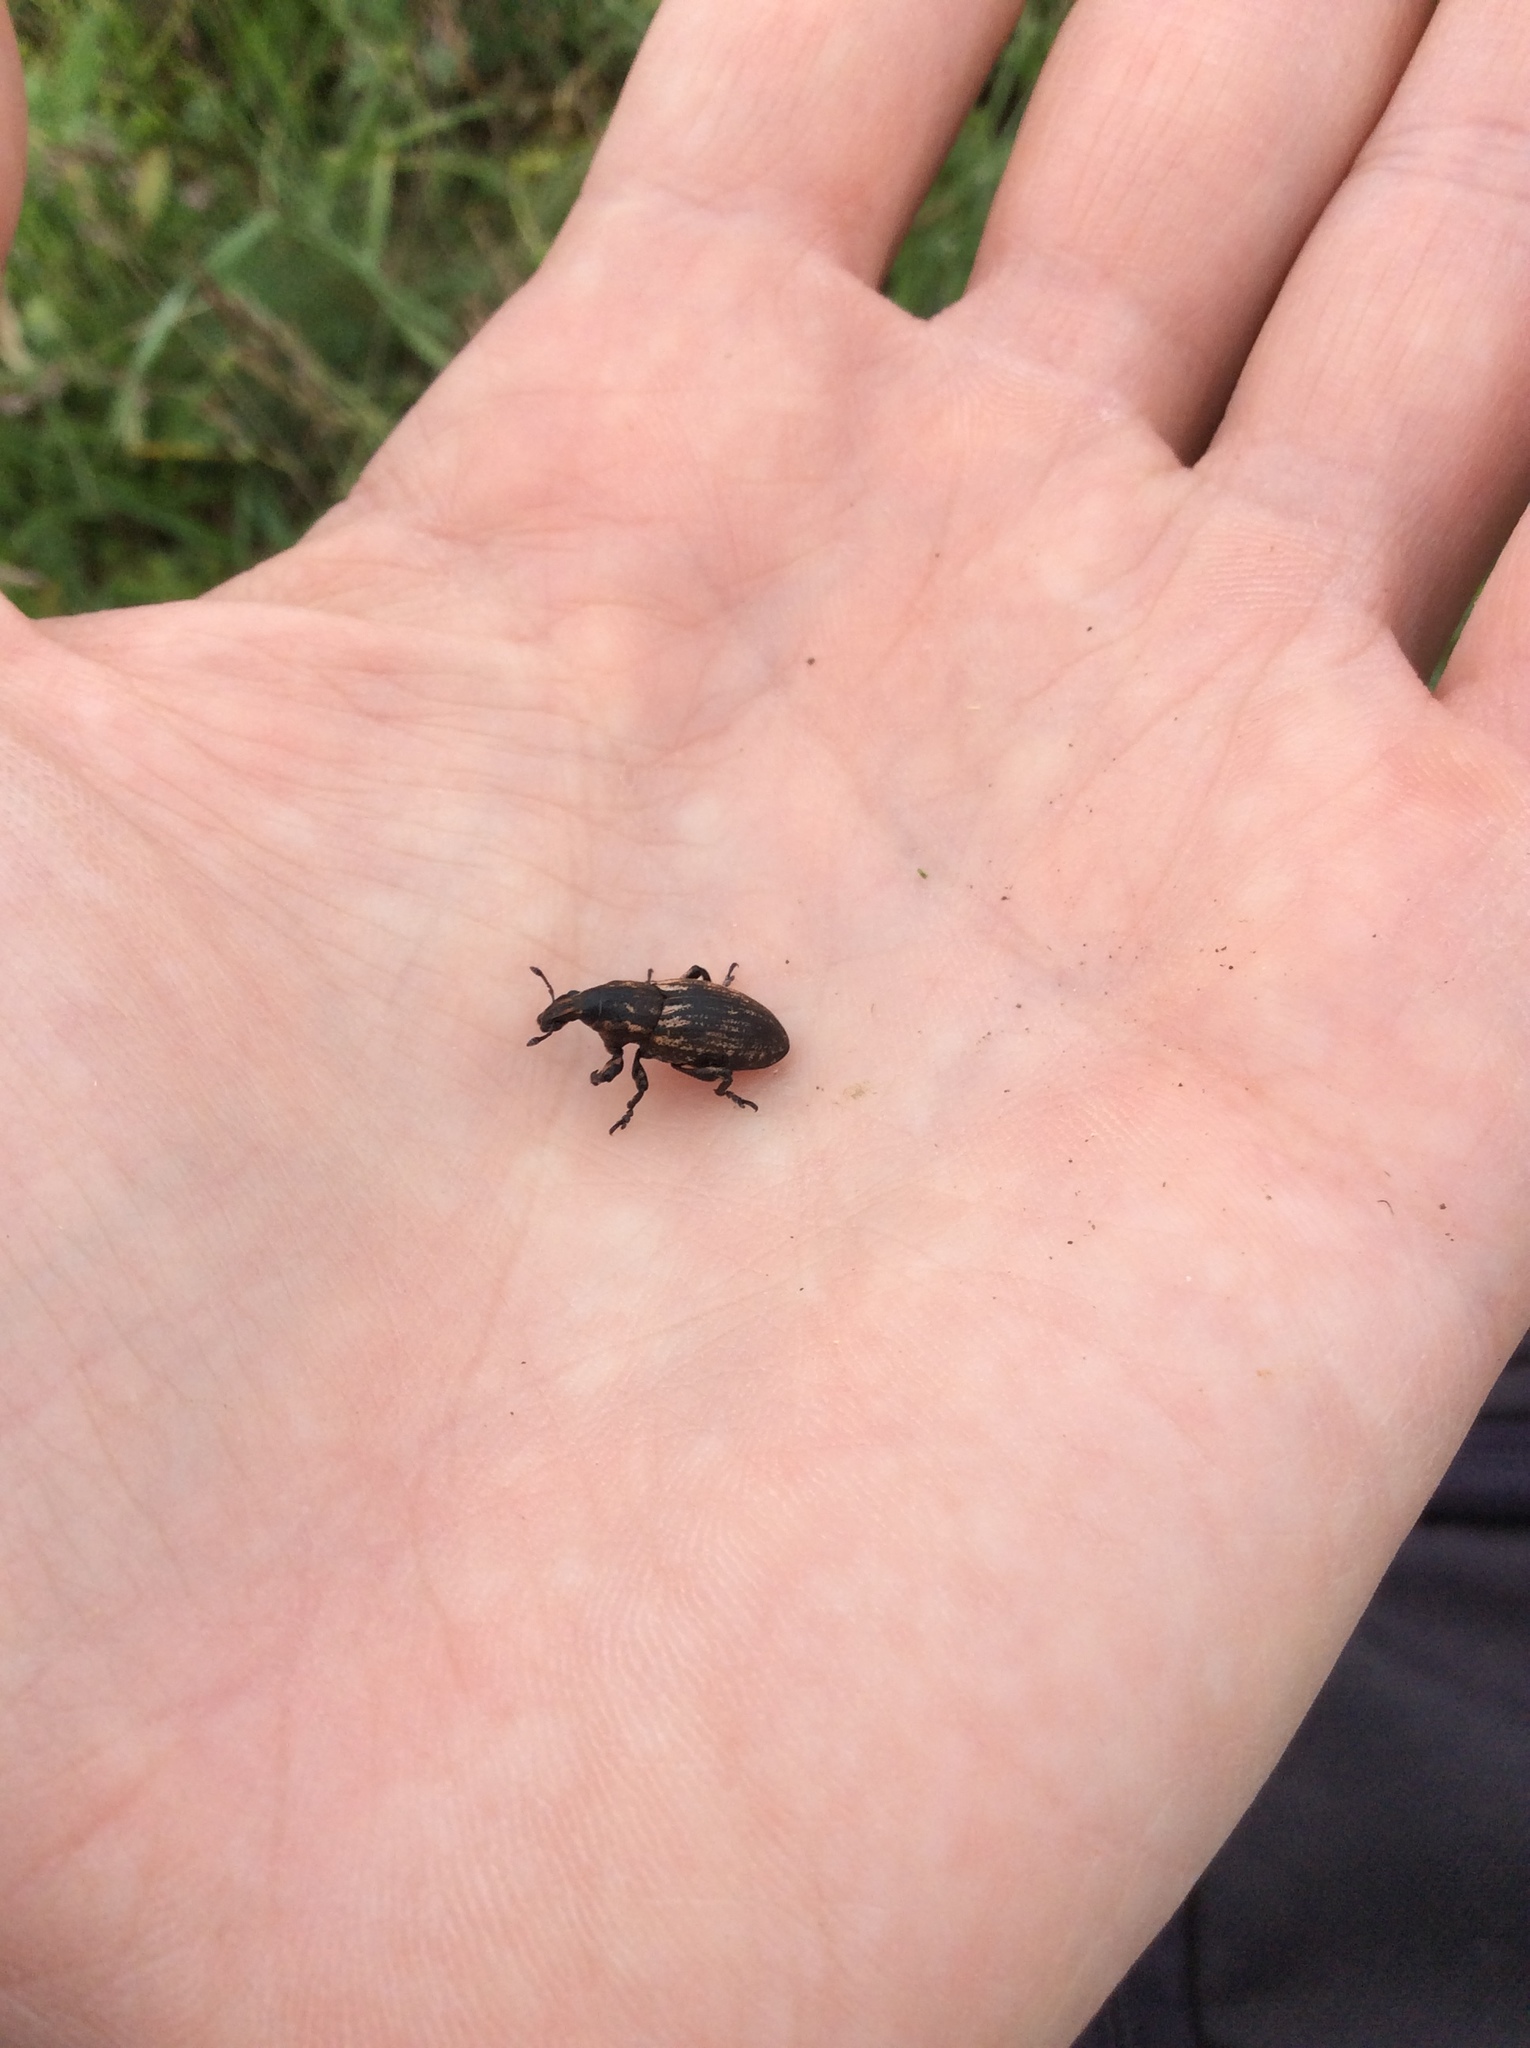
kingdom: Animalia
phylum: Arthropoda
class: Insecta
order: Coleoptera
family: Curculionidae
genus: Pseudocleonus
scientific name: Pseudocleonus cinereus
